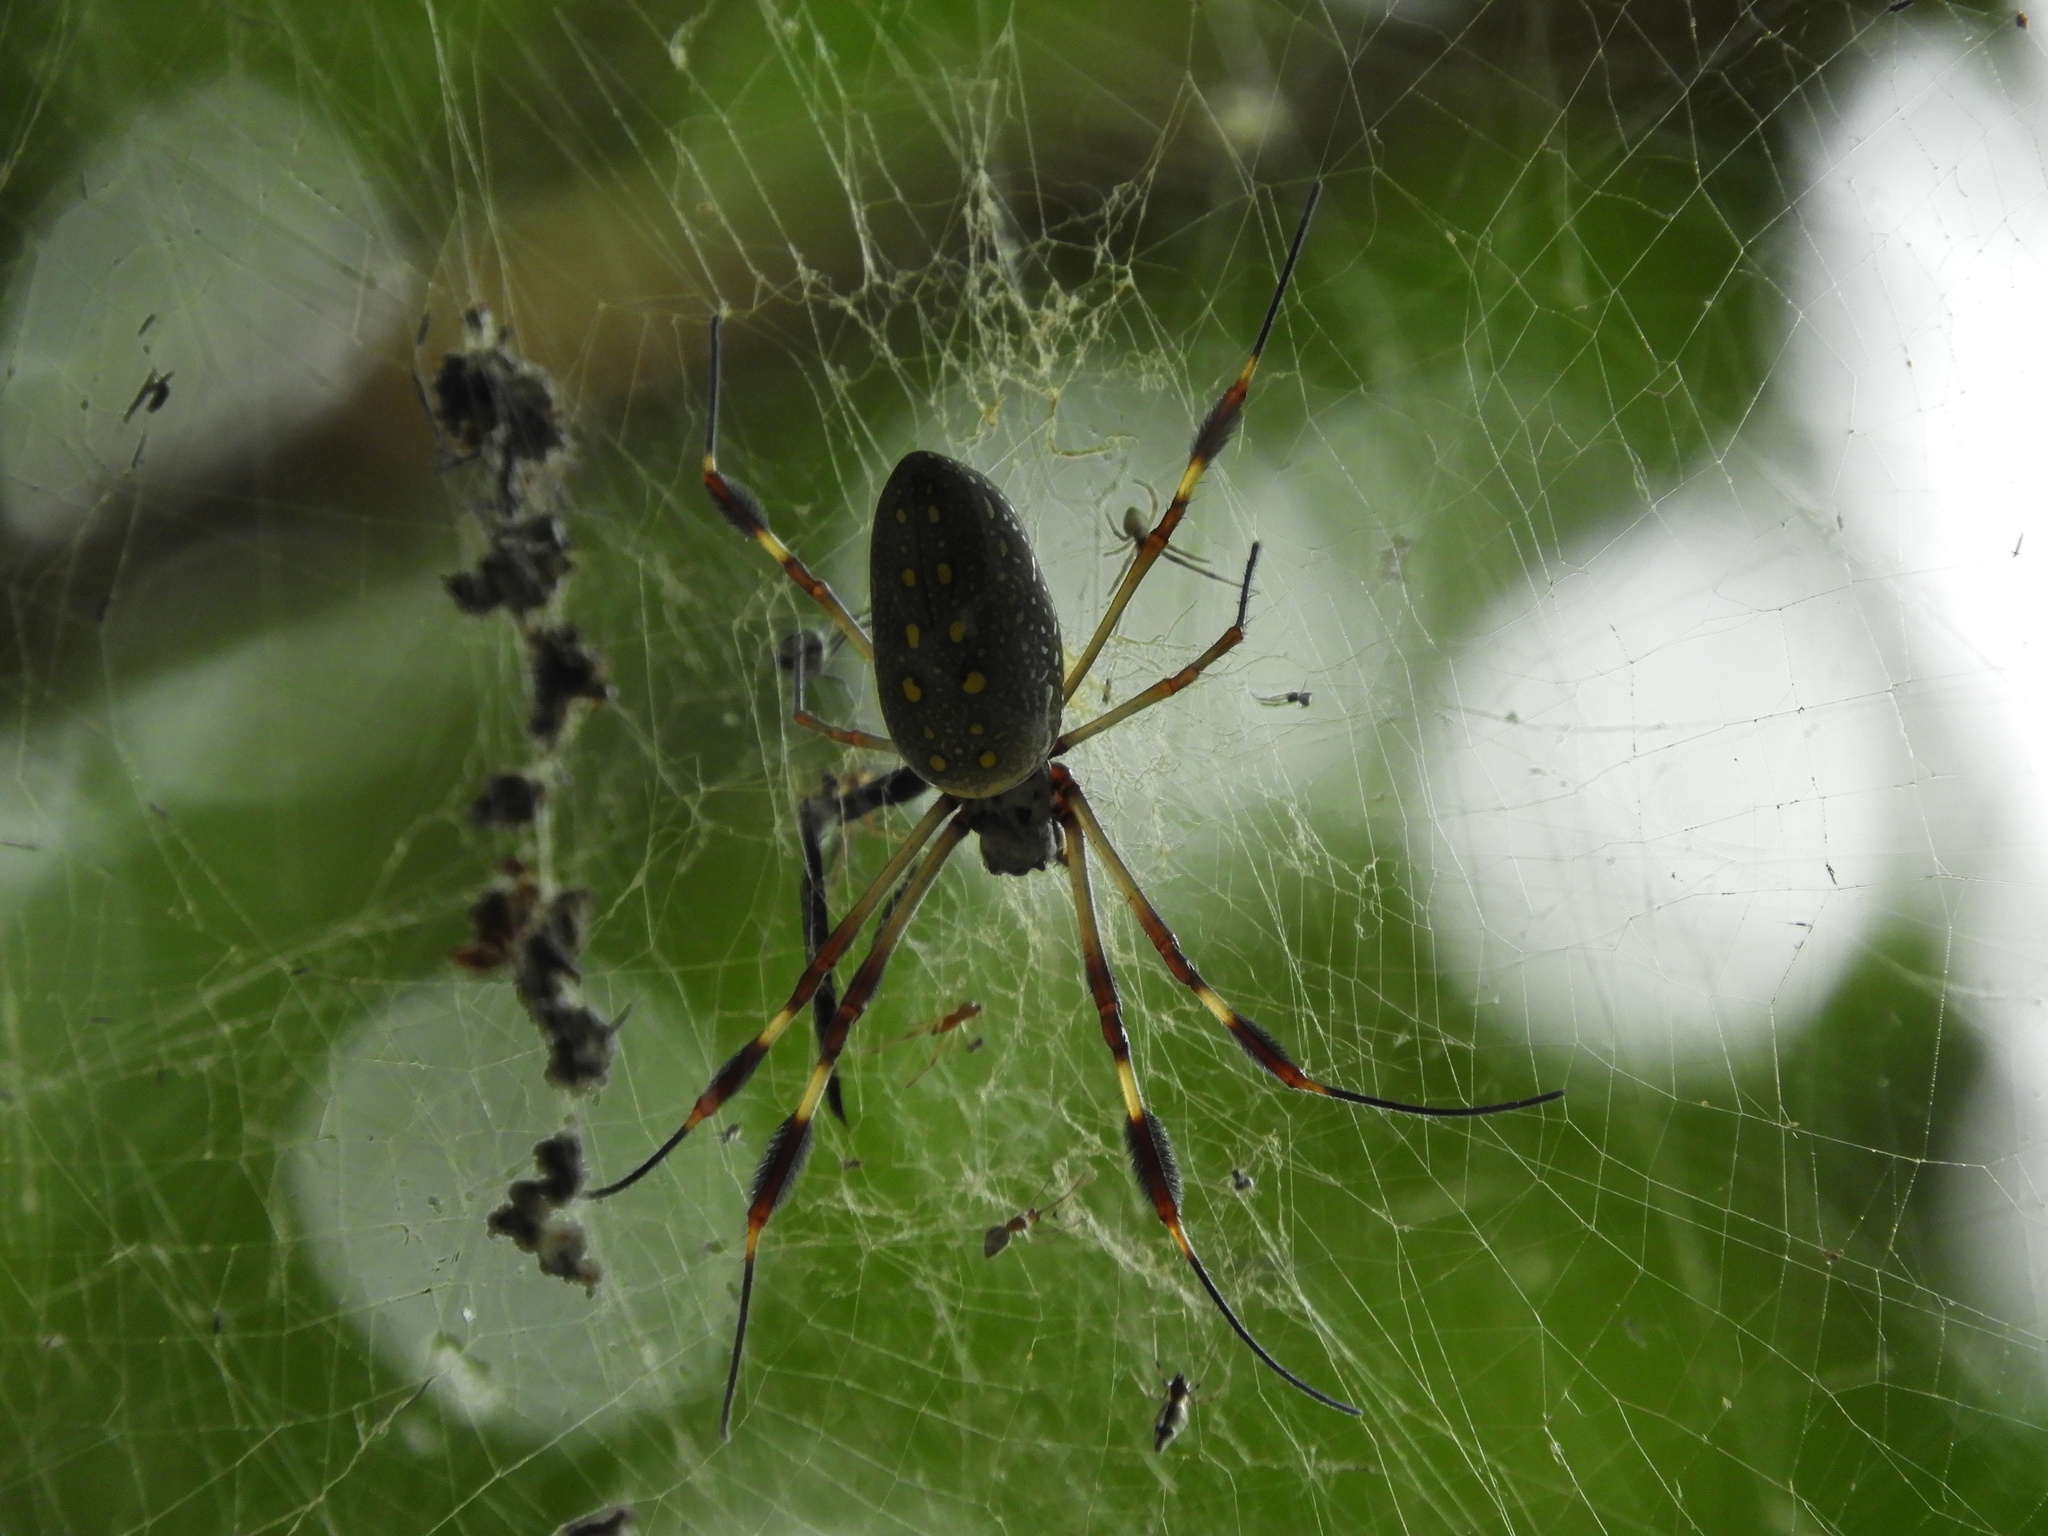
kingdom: Animalia
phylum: Arthropoda
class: Arachnida
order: Araneae
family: Araneidae
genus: Trichonephila
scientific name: Trichonephila clavipes
